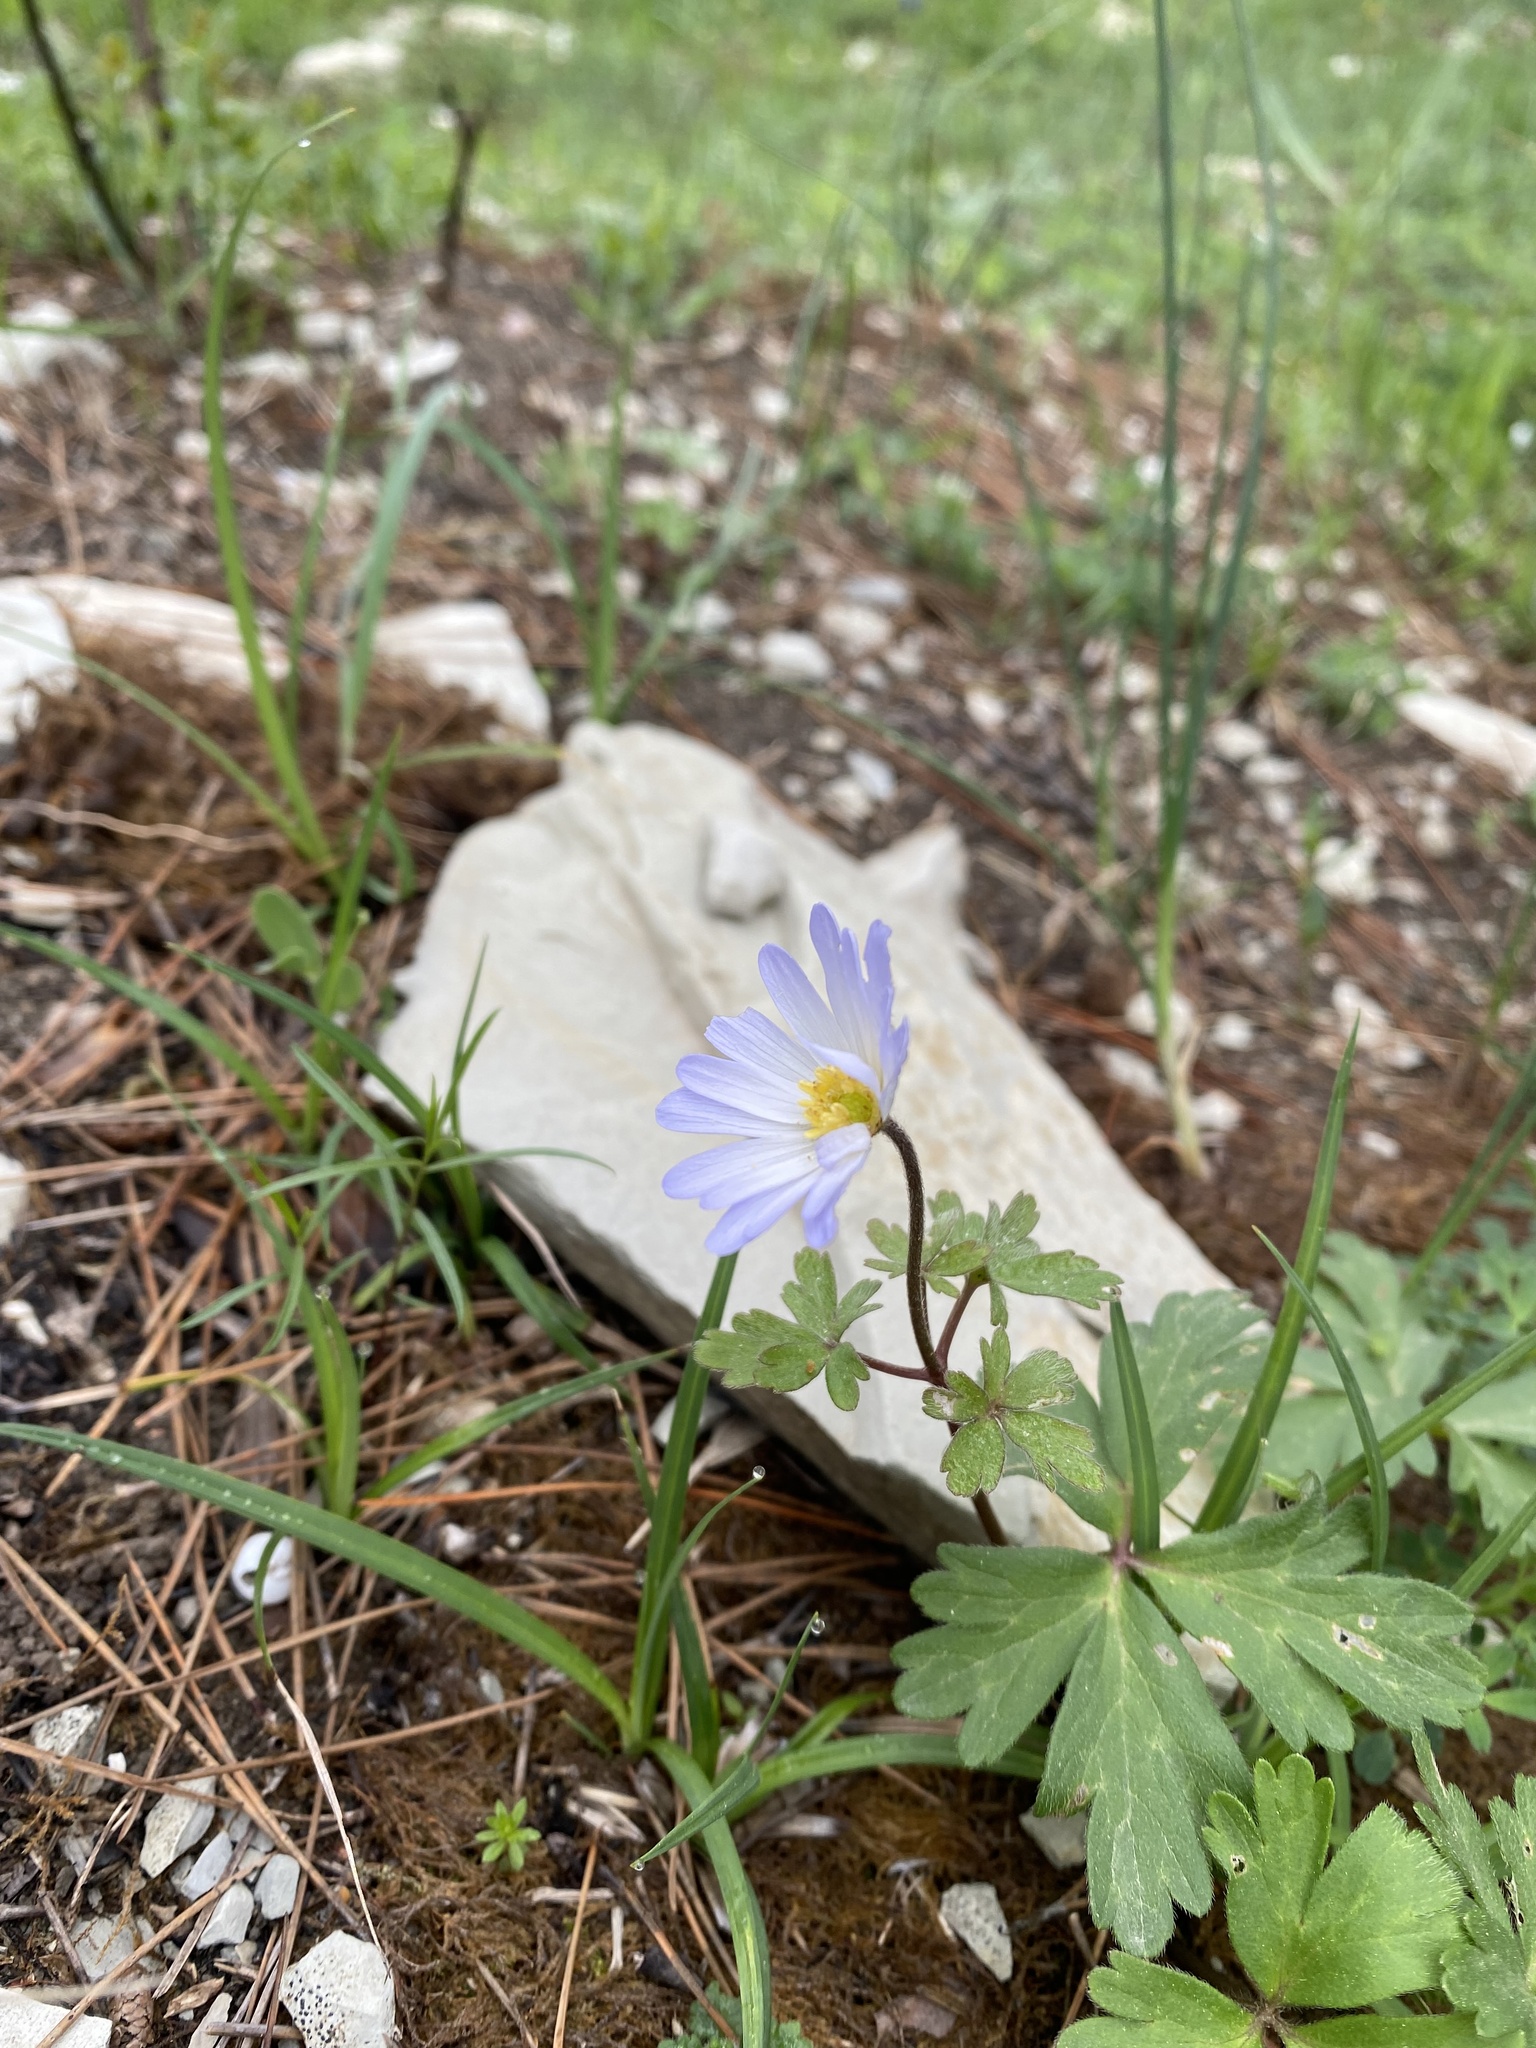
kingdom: Plantae
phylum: Tracheophyta
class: Magnoliopsida
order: Ranunculales
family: Ranunculaceae
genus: Anemone
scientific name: Anemone blanda
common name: Balkan anemone
